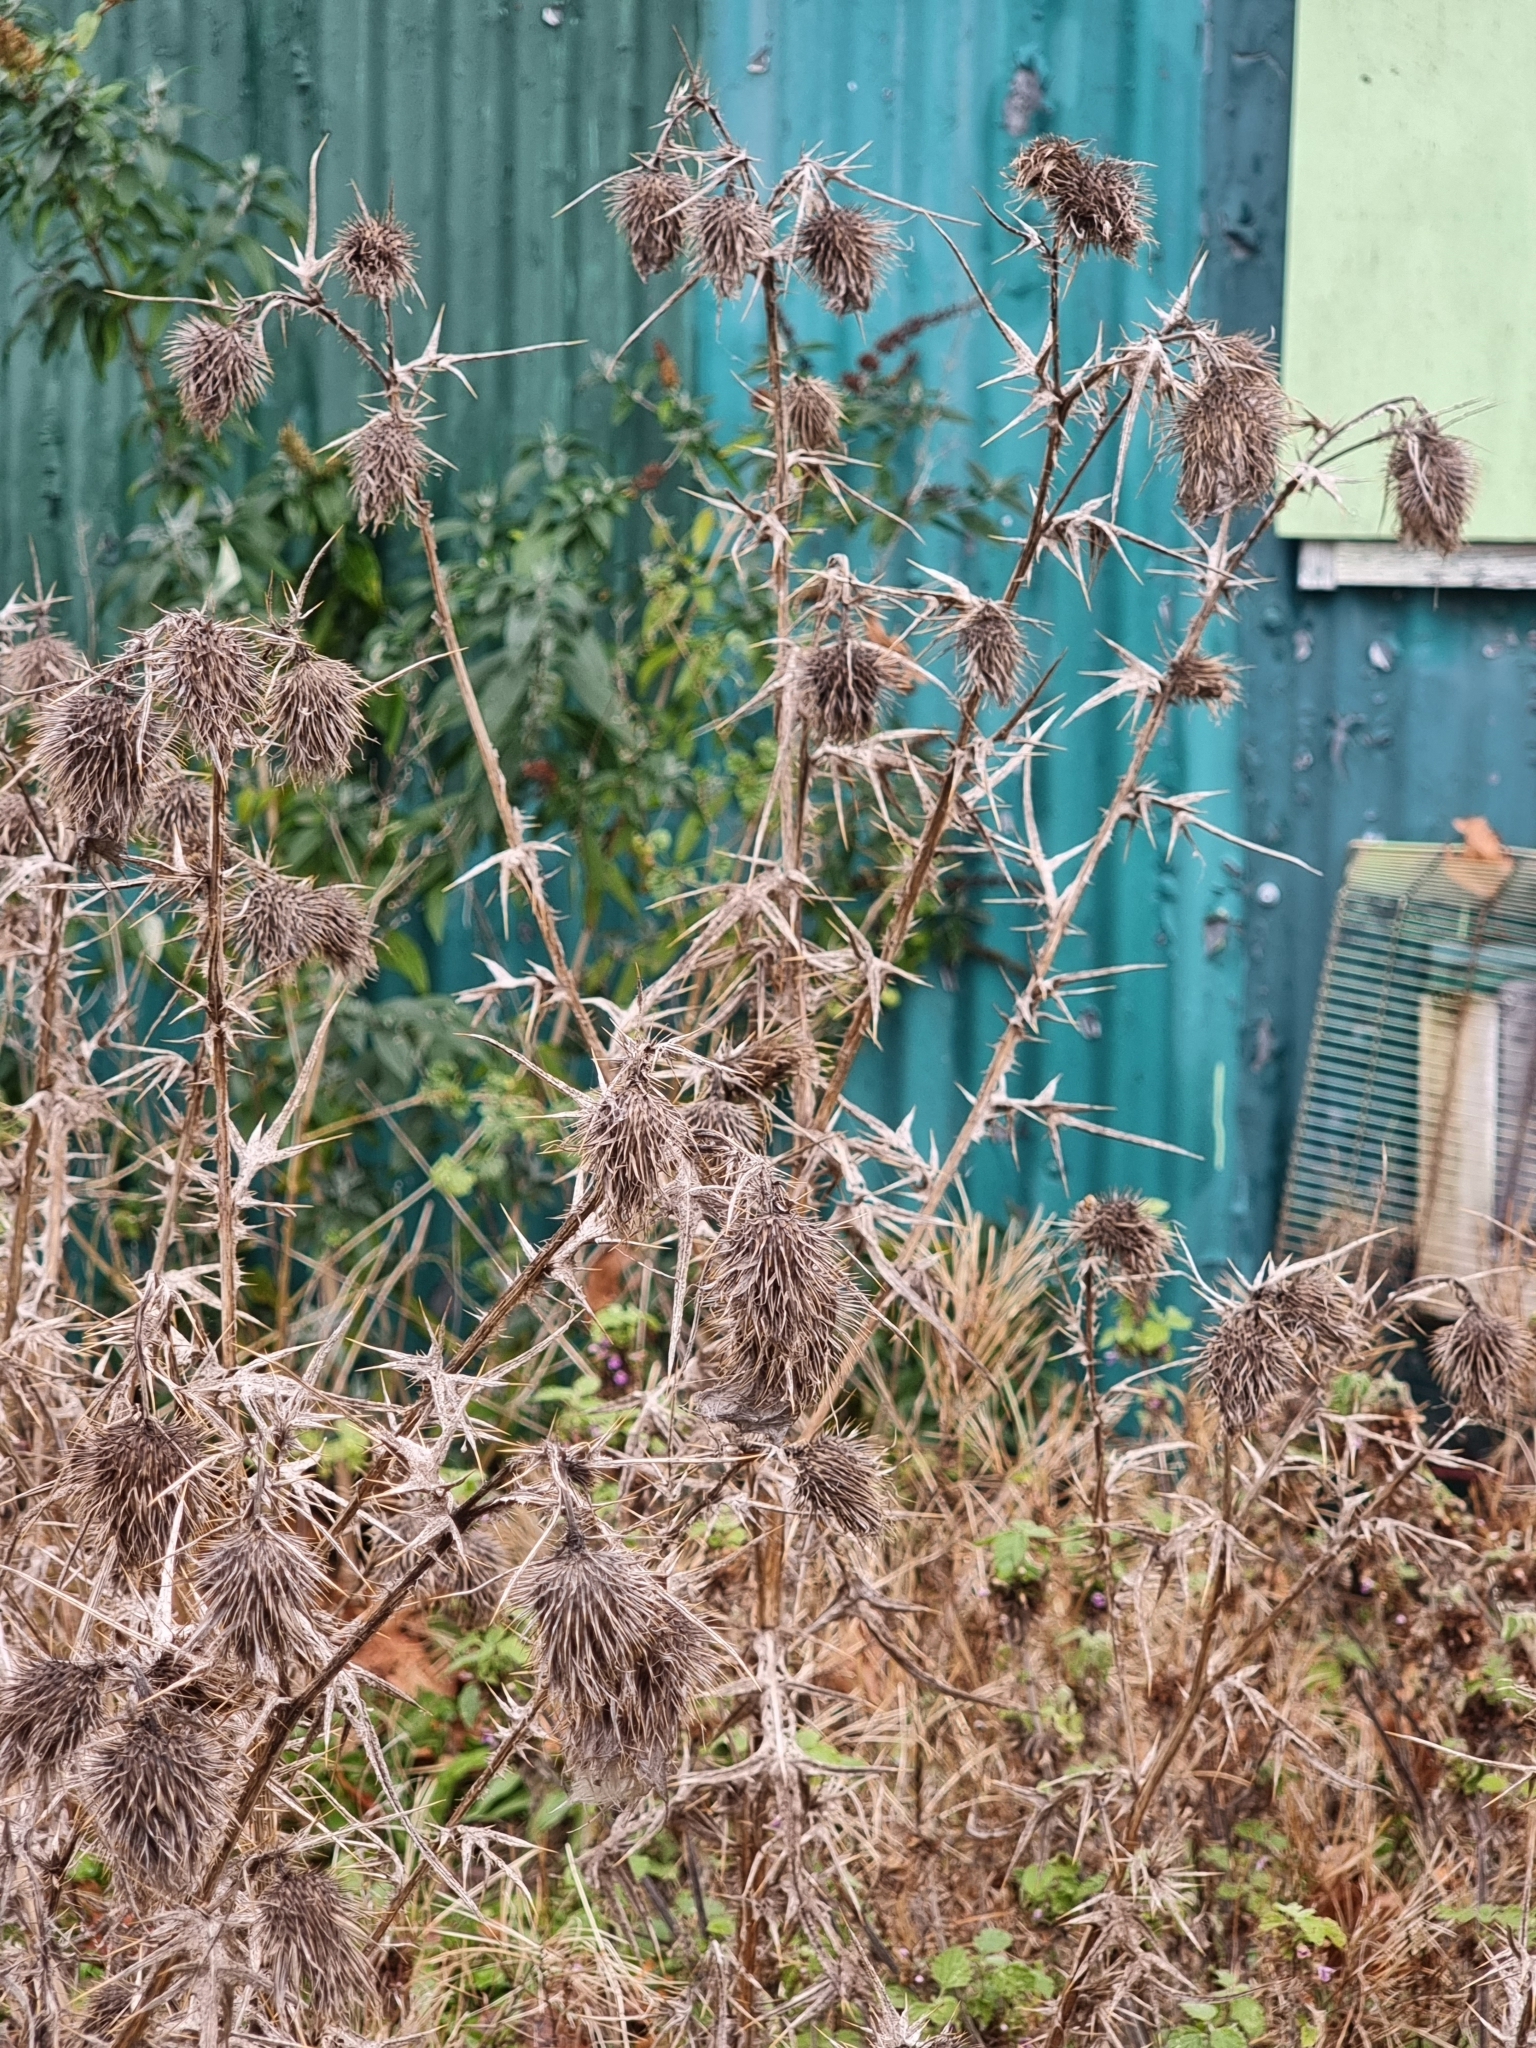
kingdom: Plantae
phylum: Tracheophyta
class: Magnoliopsida
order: Asterales
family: Asteraceae
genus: Cirsium
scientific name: Cirsium vulgare
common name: Bull thistle
